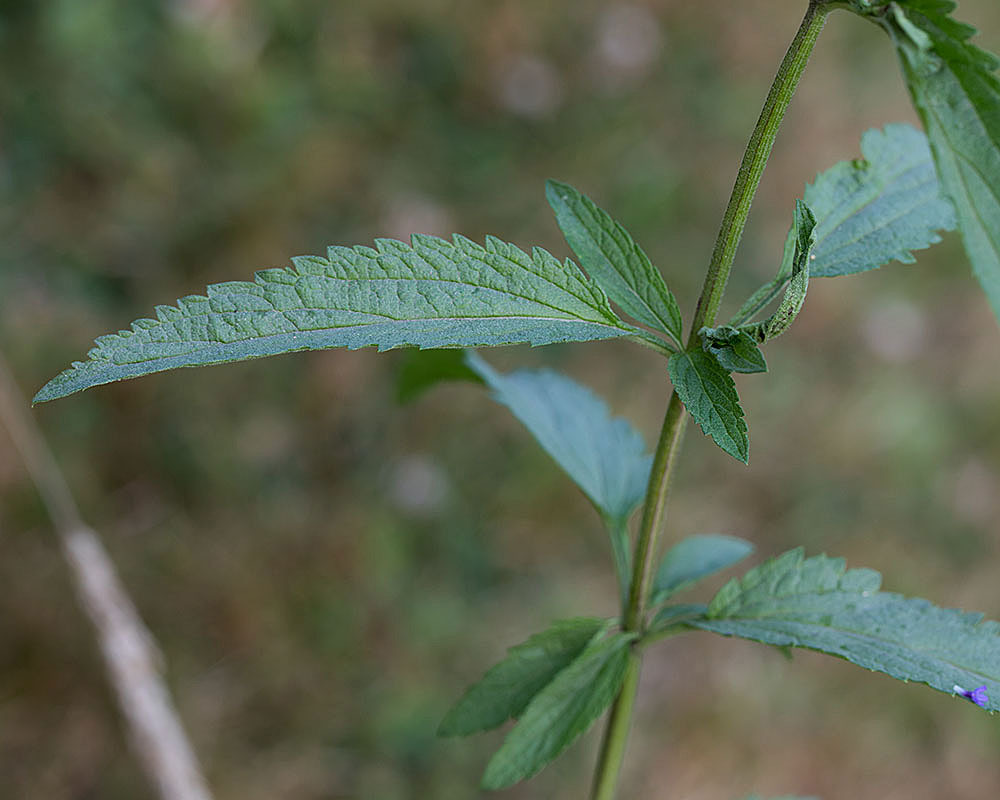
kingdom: Plantae
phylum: Tracheophyta
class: Magnoliopsida
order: Lamiales
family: Verbenaceae
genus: Verbena
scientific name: Verbena hastata
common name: American blue vervain
